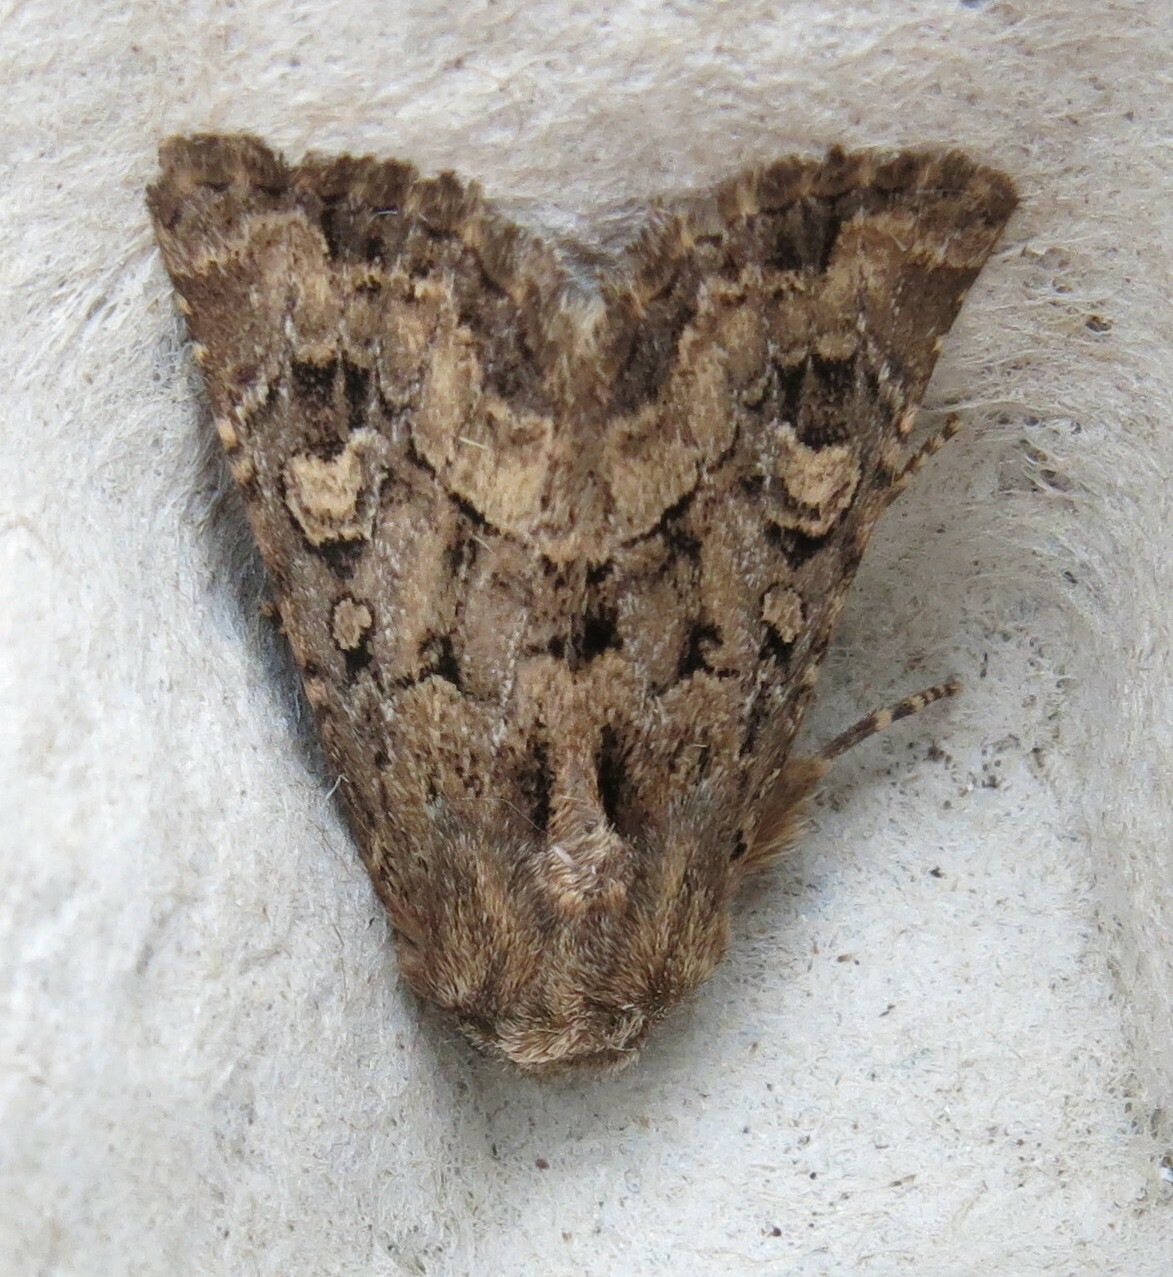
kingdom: Animalia
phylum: Arthropoda
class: Insecta
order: Lepidoptera
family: Noctuidae
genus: Luperina
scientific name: Luperina testacea
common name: Flounced rustic
